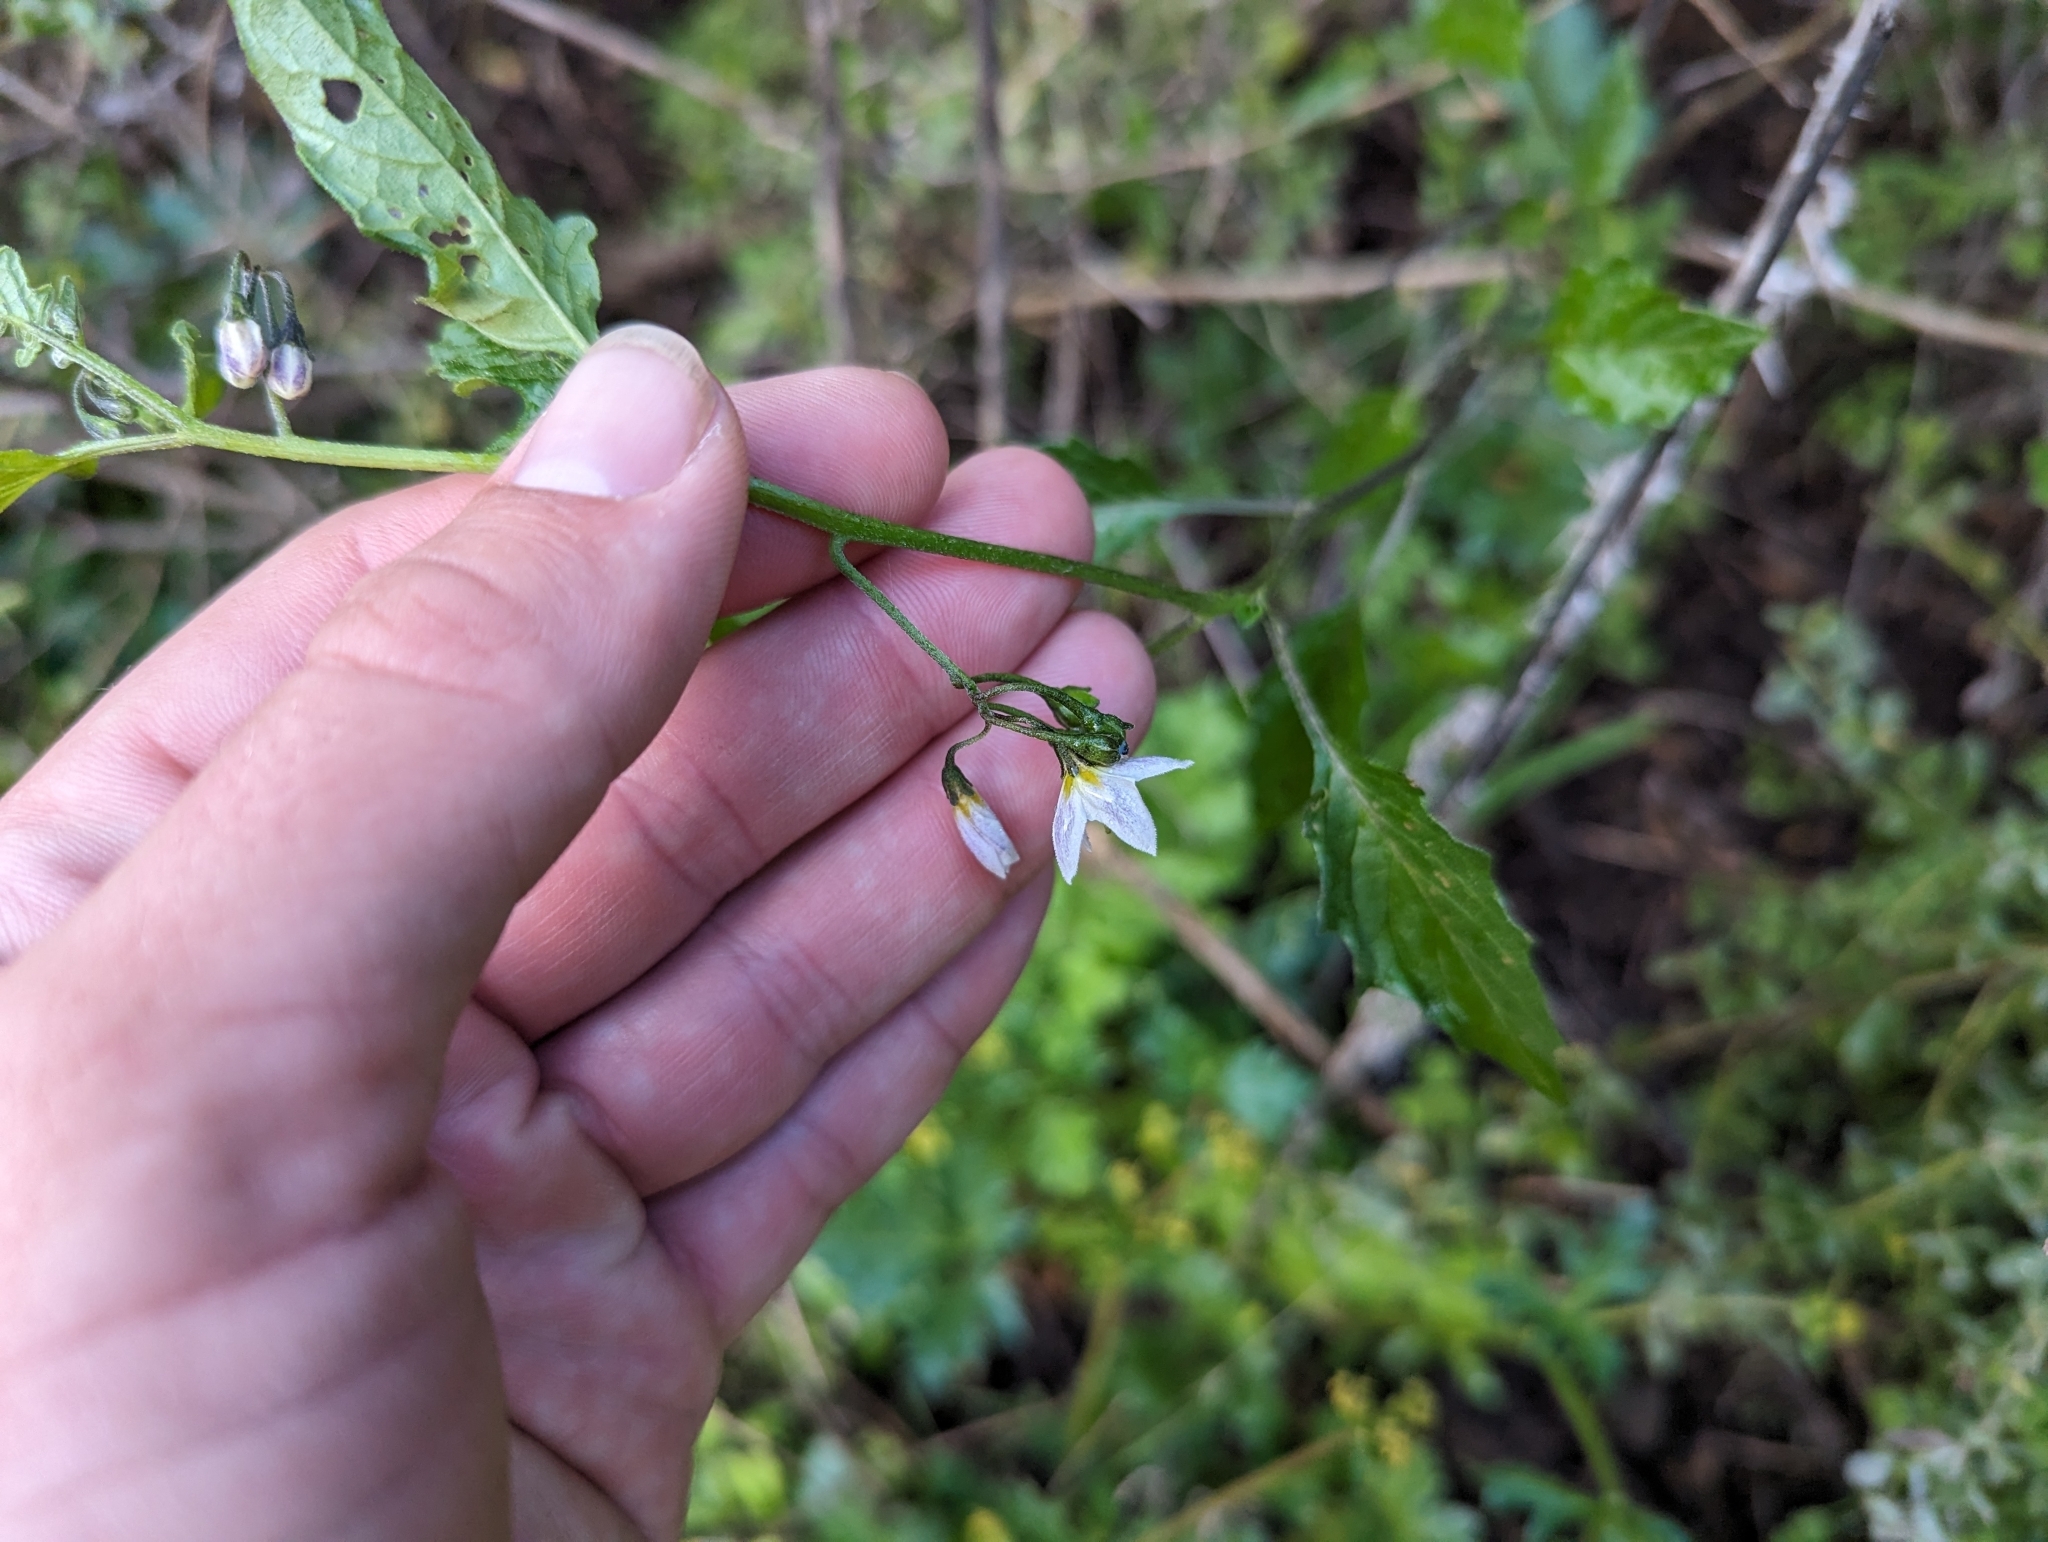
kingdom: Plantae
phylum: Tracheophyta
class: Magnoliopsida
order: Solanales
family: Solanaceae
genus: Solanum
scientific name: Solanum furcatum
